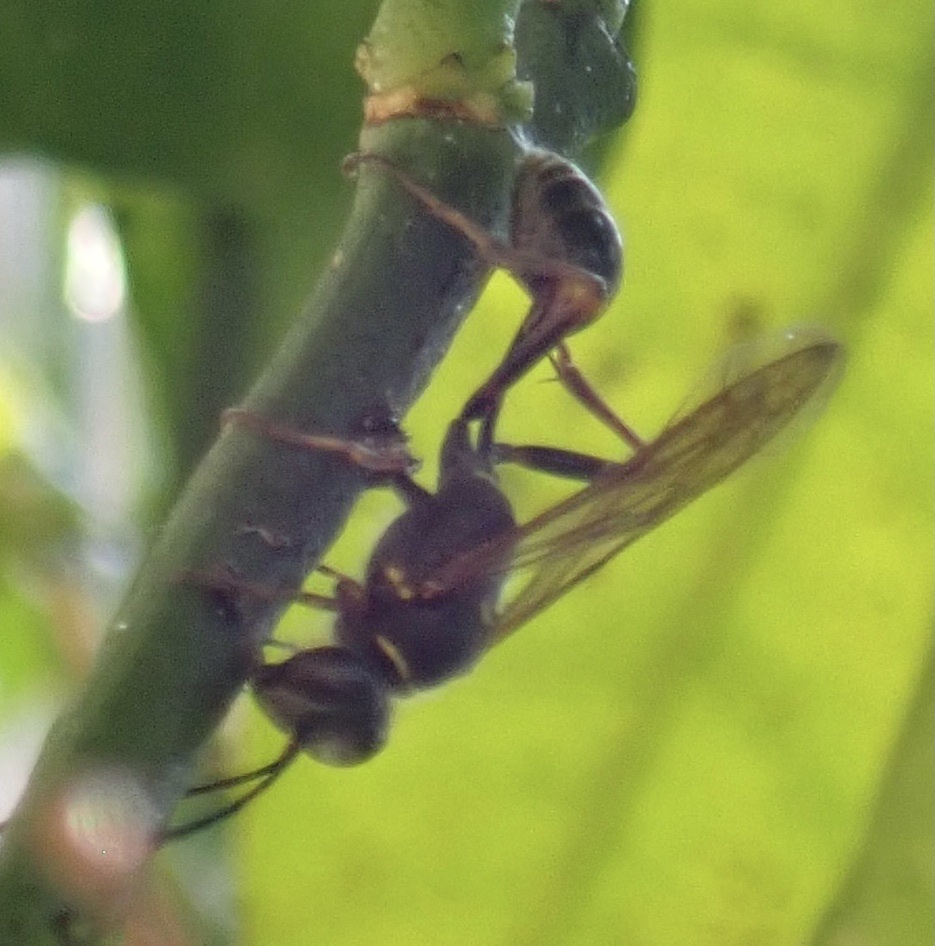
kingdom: Animalia
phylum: Arthropoda
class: Insecta
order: Hymenoptera
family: Sphecidae
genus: Sceliphron
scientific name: Sceliphron curvatum
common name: Pèlopèe
